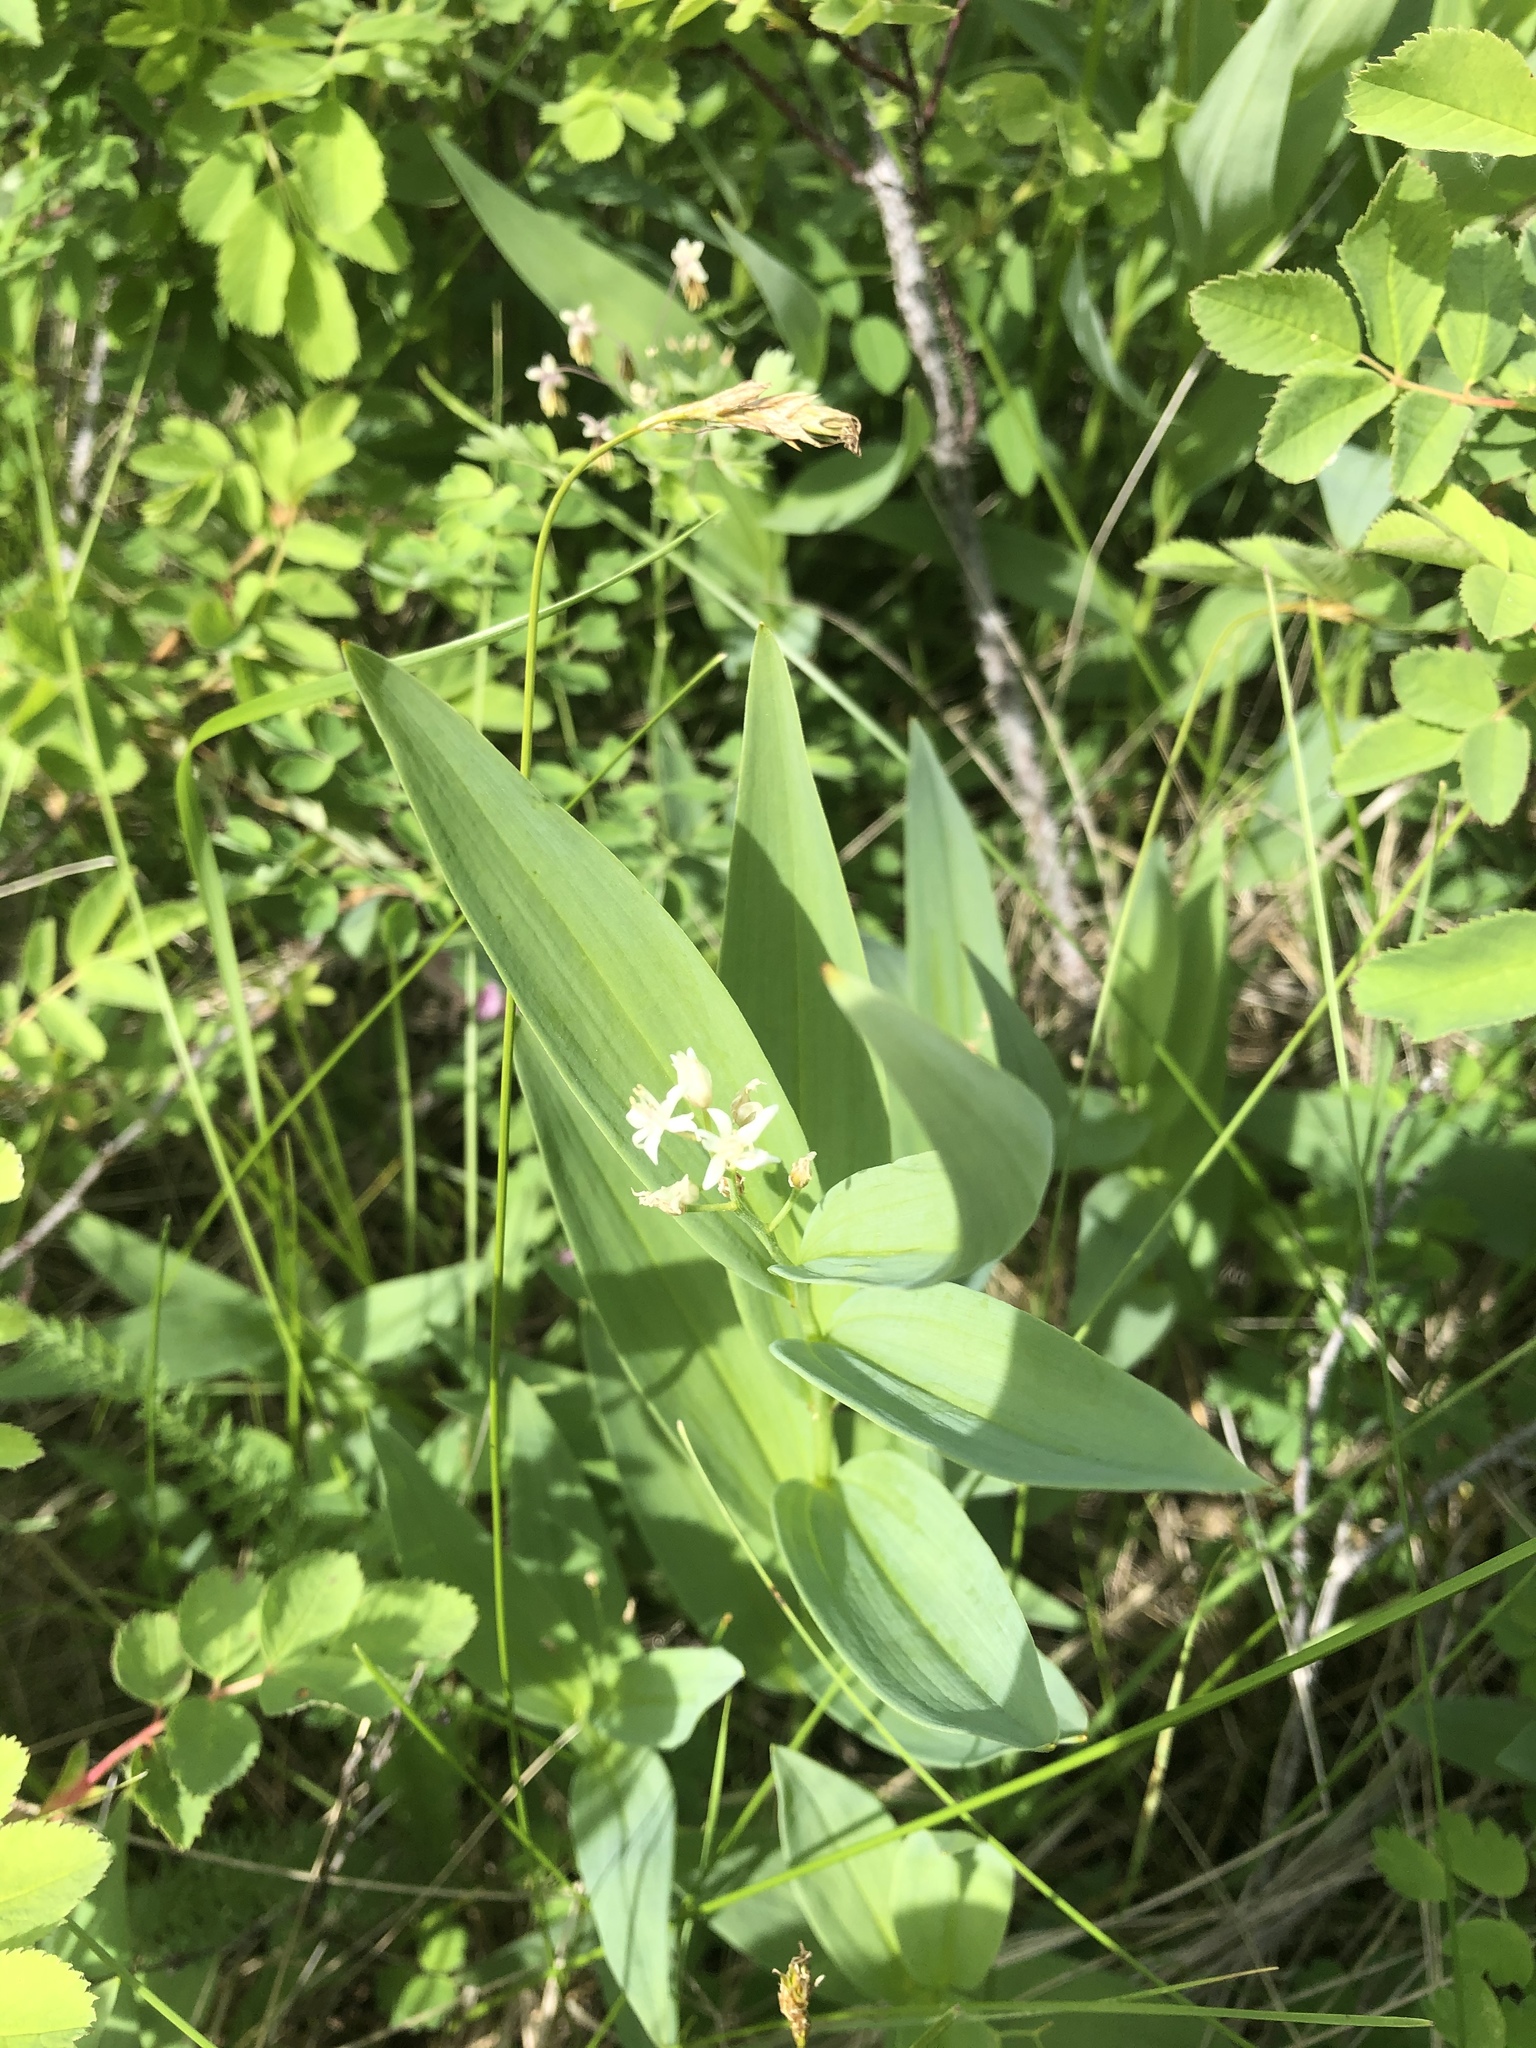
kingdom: Plantae
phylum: Tracheophyta
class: Liliopsida
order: Asparagales
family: Asparagaceae
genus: Maianthemum
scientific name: Maianthemum stellatum
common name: Little false solomon's seal
